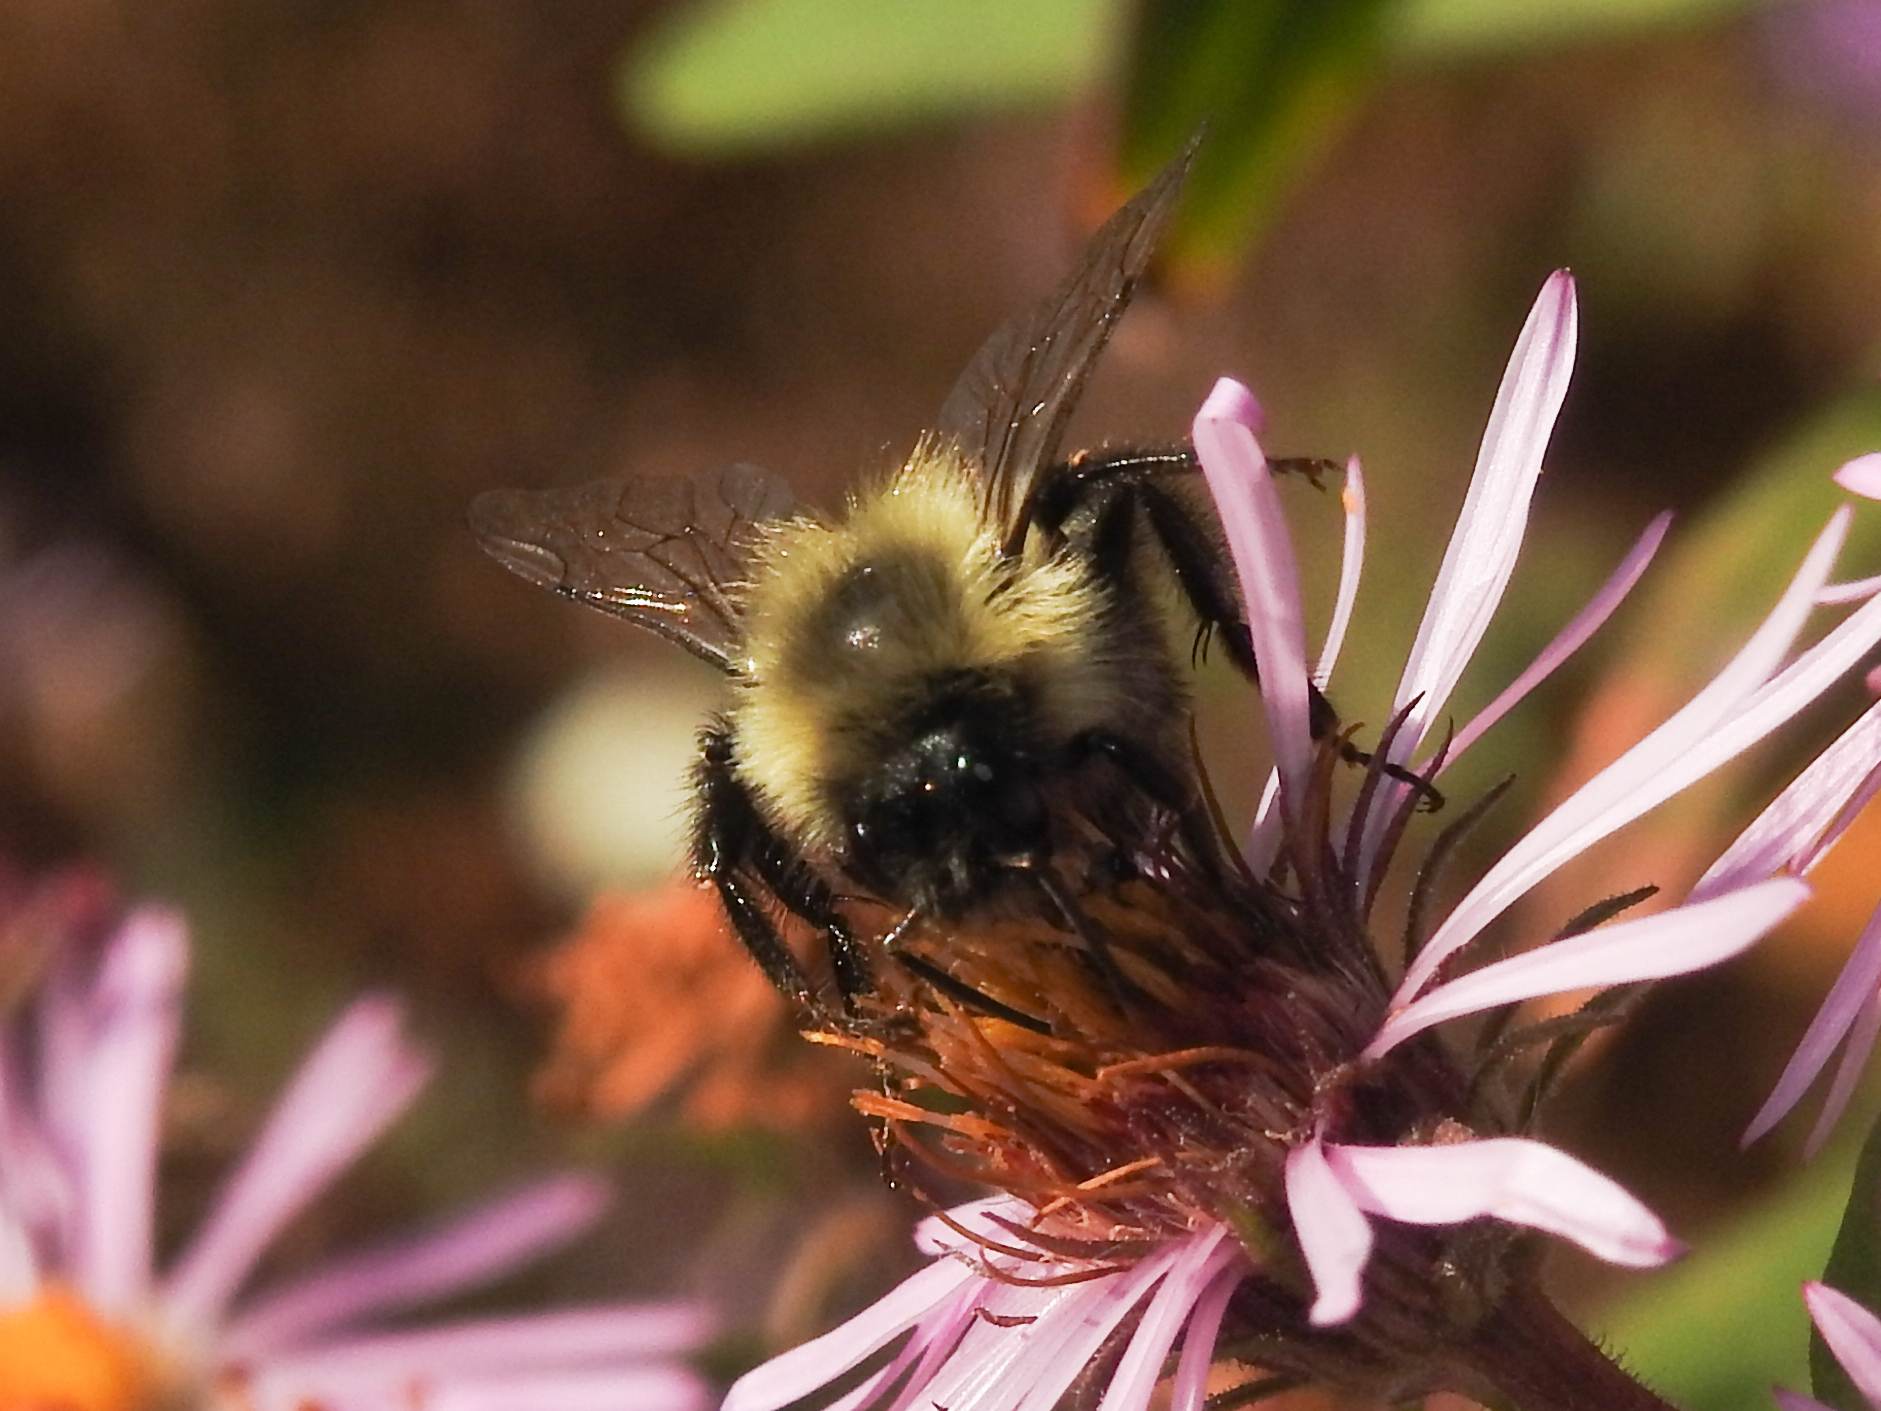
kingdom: Animalia
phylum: Arthropoda
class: Insecta
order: Hymenoptera
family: Apidae
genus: Bombus
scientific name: Bombus impatiens
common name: Common eastern bumble bee
